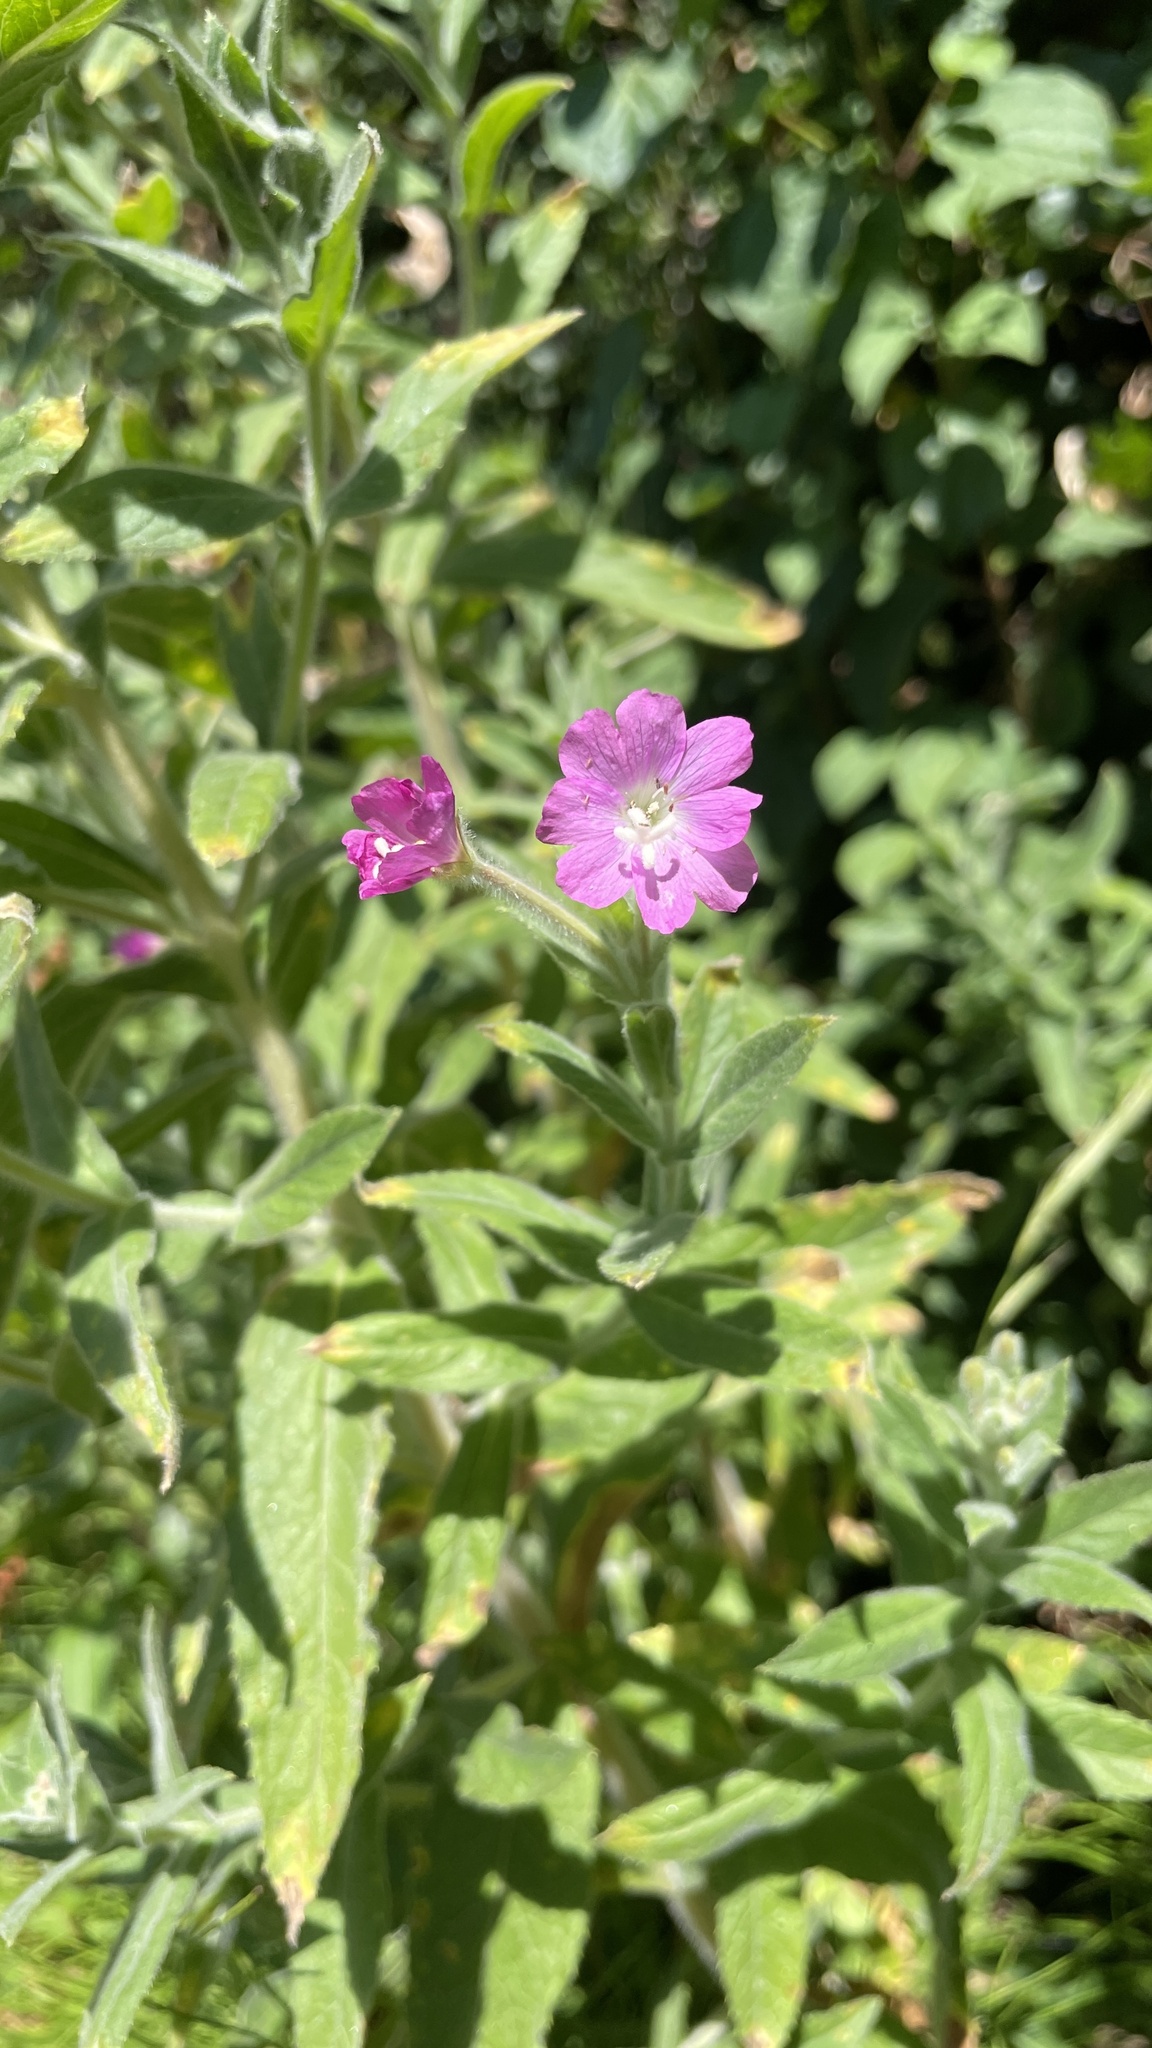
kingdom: Plantae
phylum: Tracheophyta
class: Magnoliopsida
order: Myrtales
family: Onagraceae
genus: Epilobium
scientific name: Epilobium hirsutum
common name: Great willowherb
